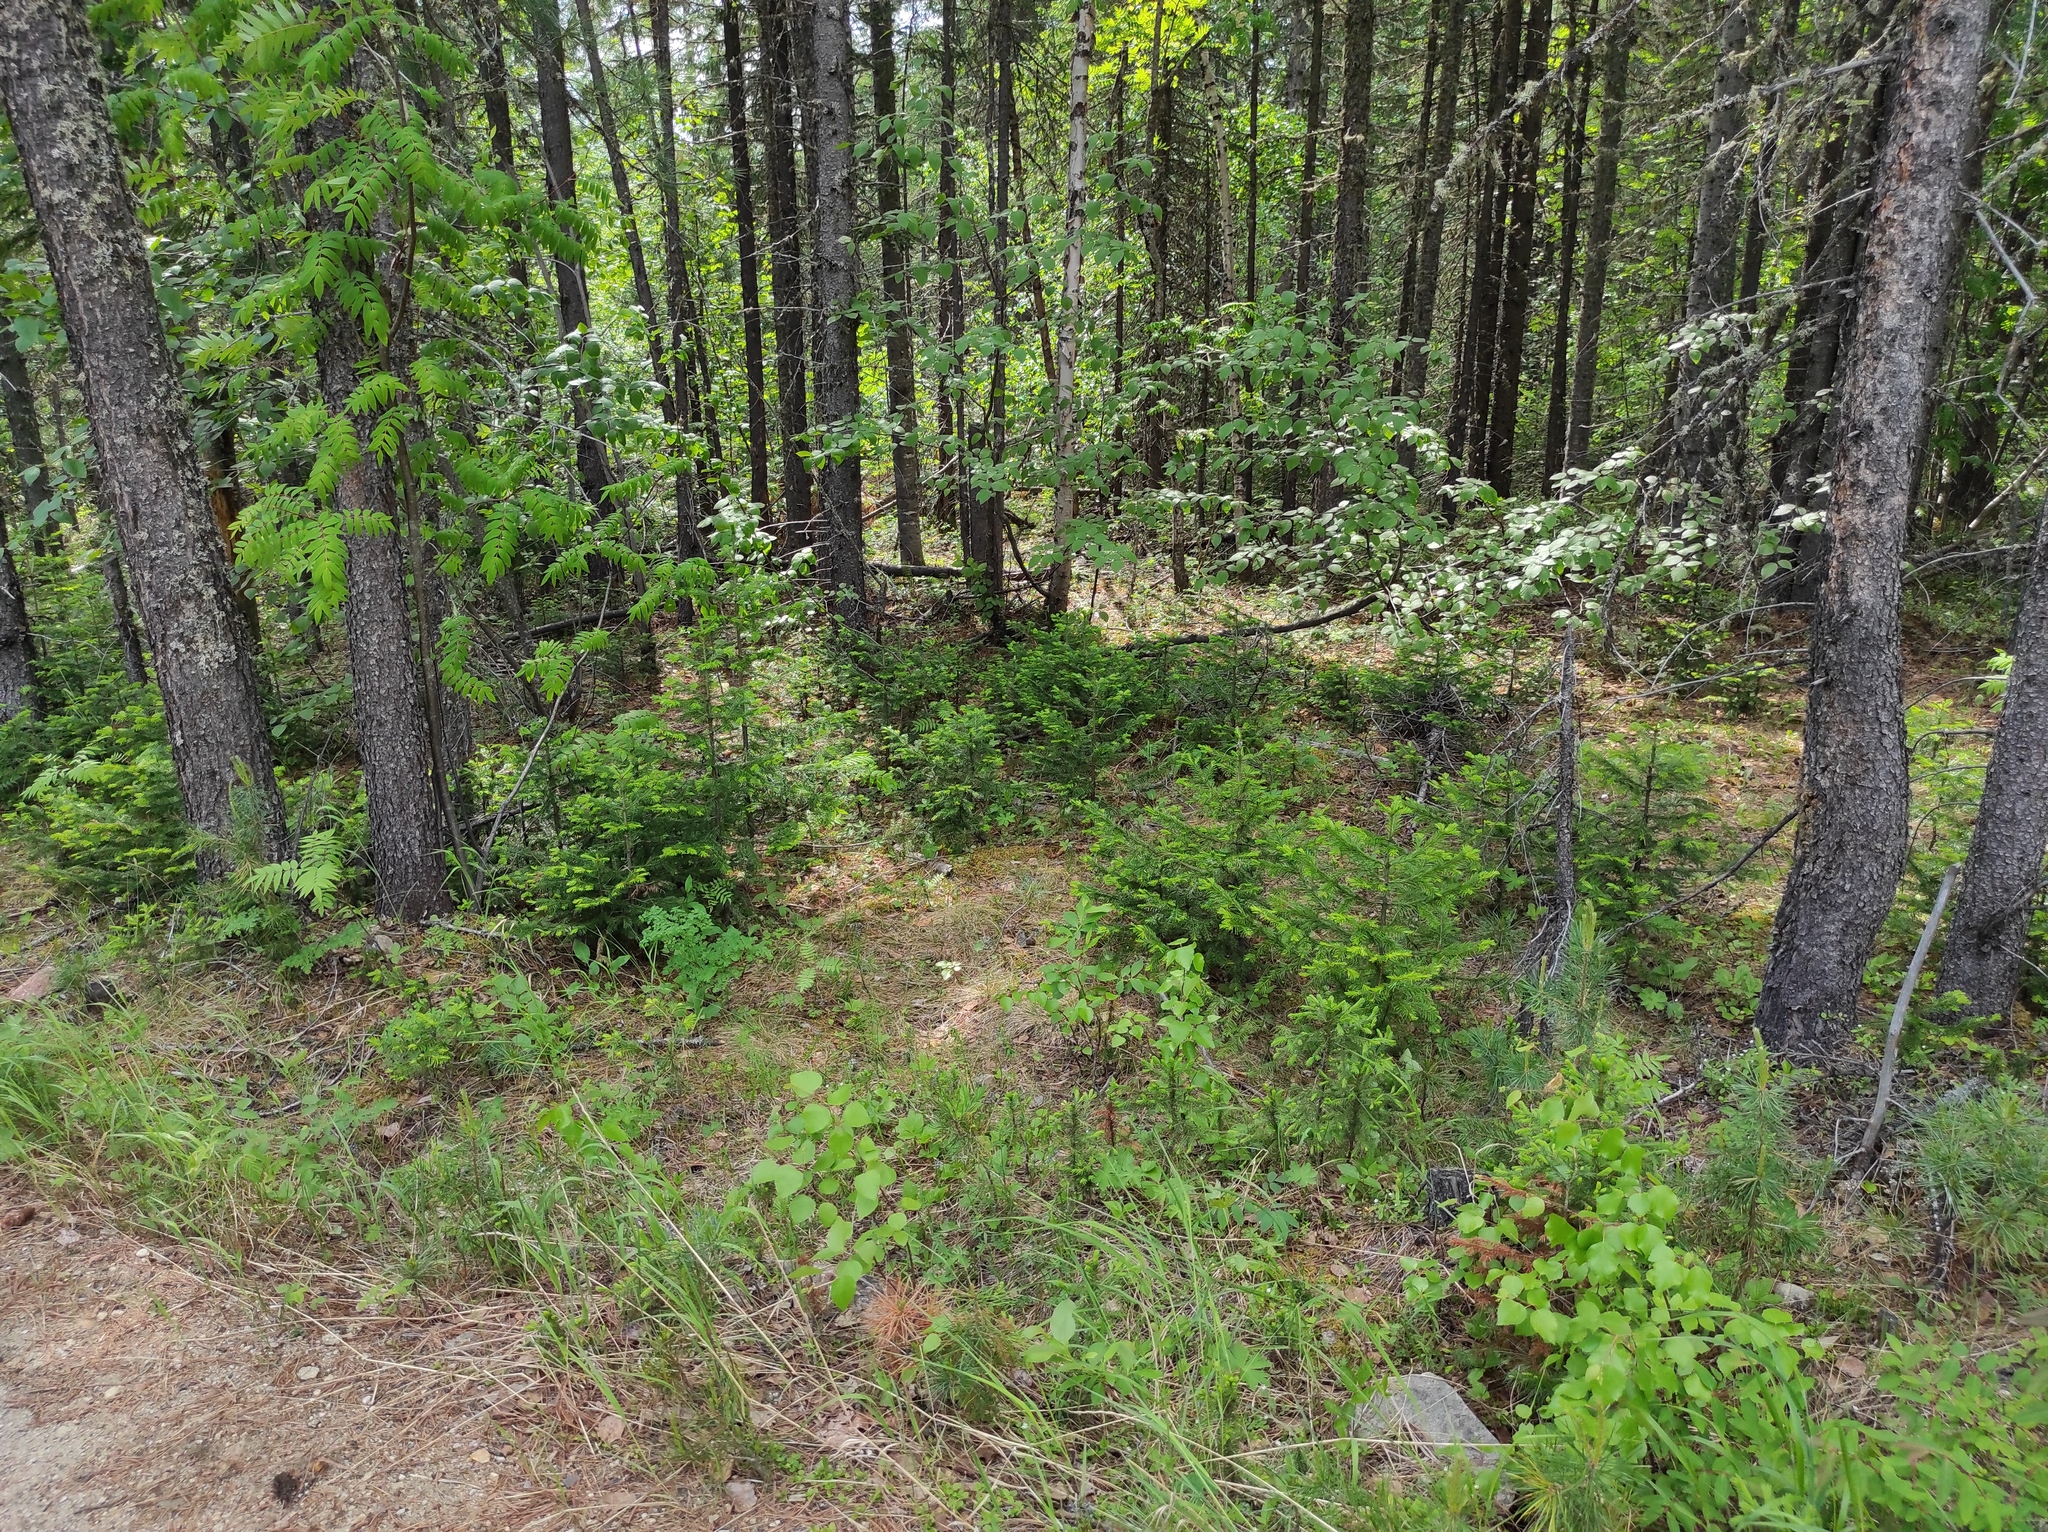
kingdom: Plantae
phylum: Tracheophyta
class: Liliopsida
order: Asparagales
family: Orchidaceae
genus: Calypso
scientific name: Calypso bulbosa
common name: Calypso
